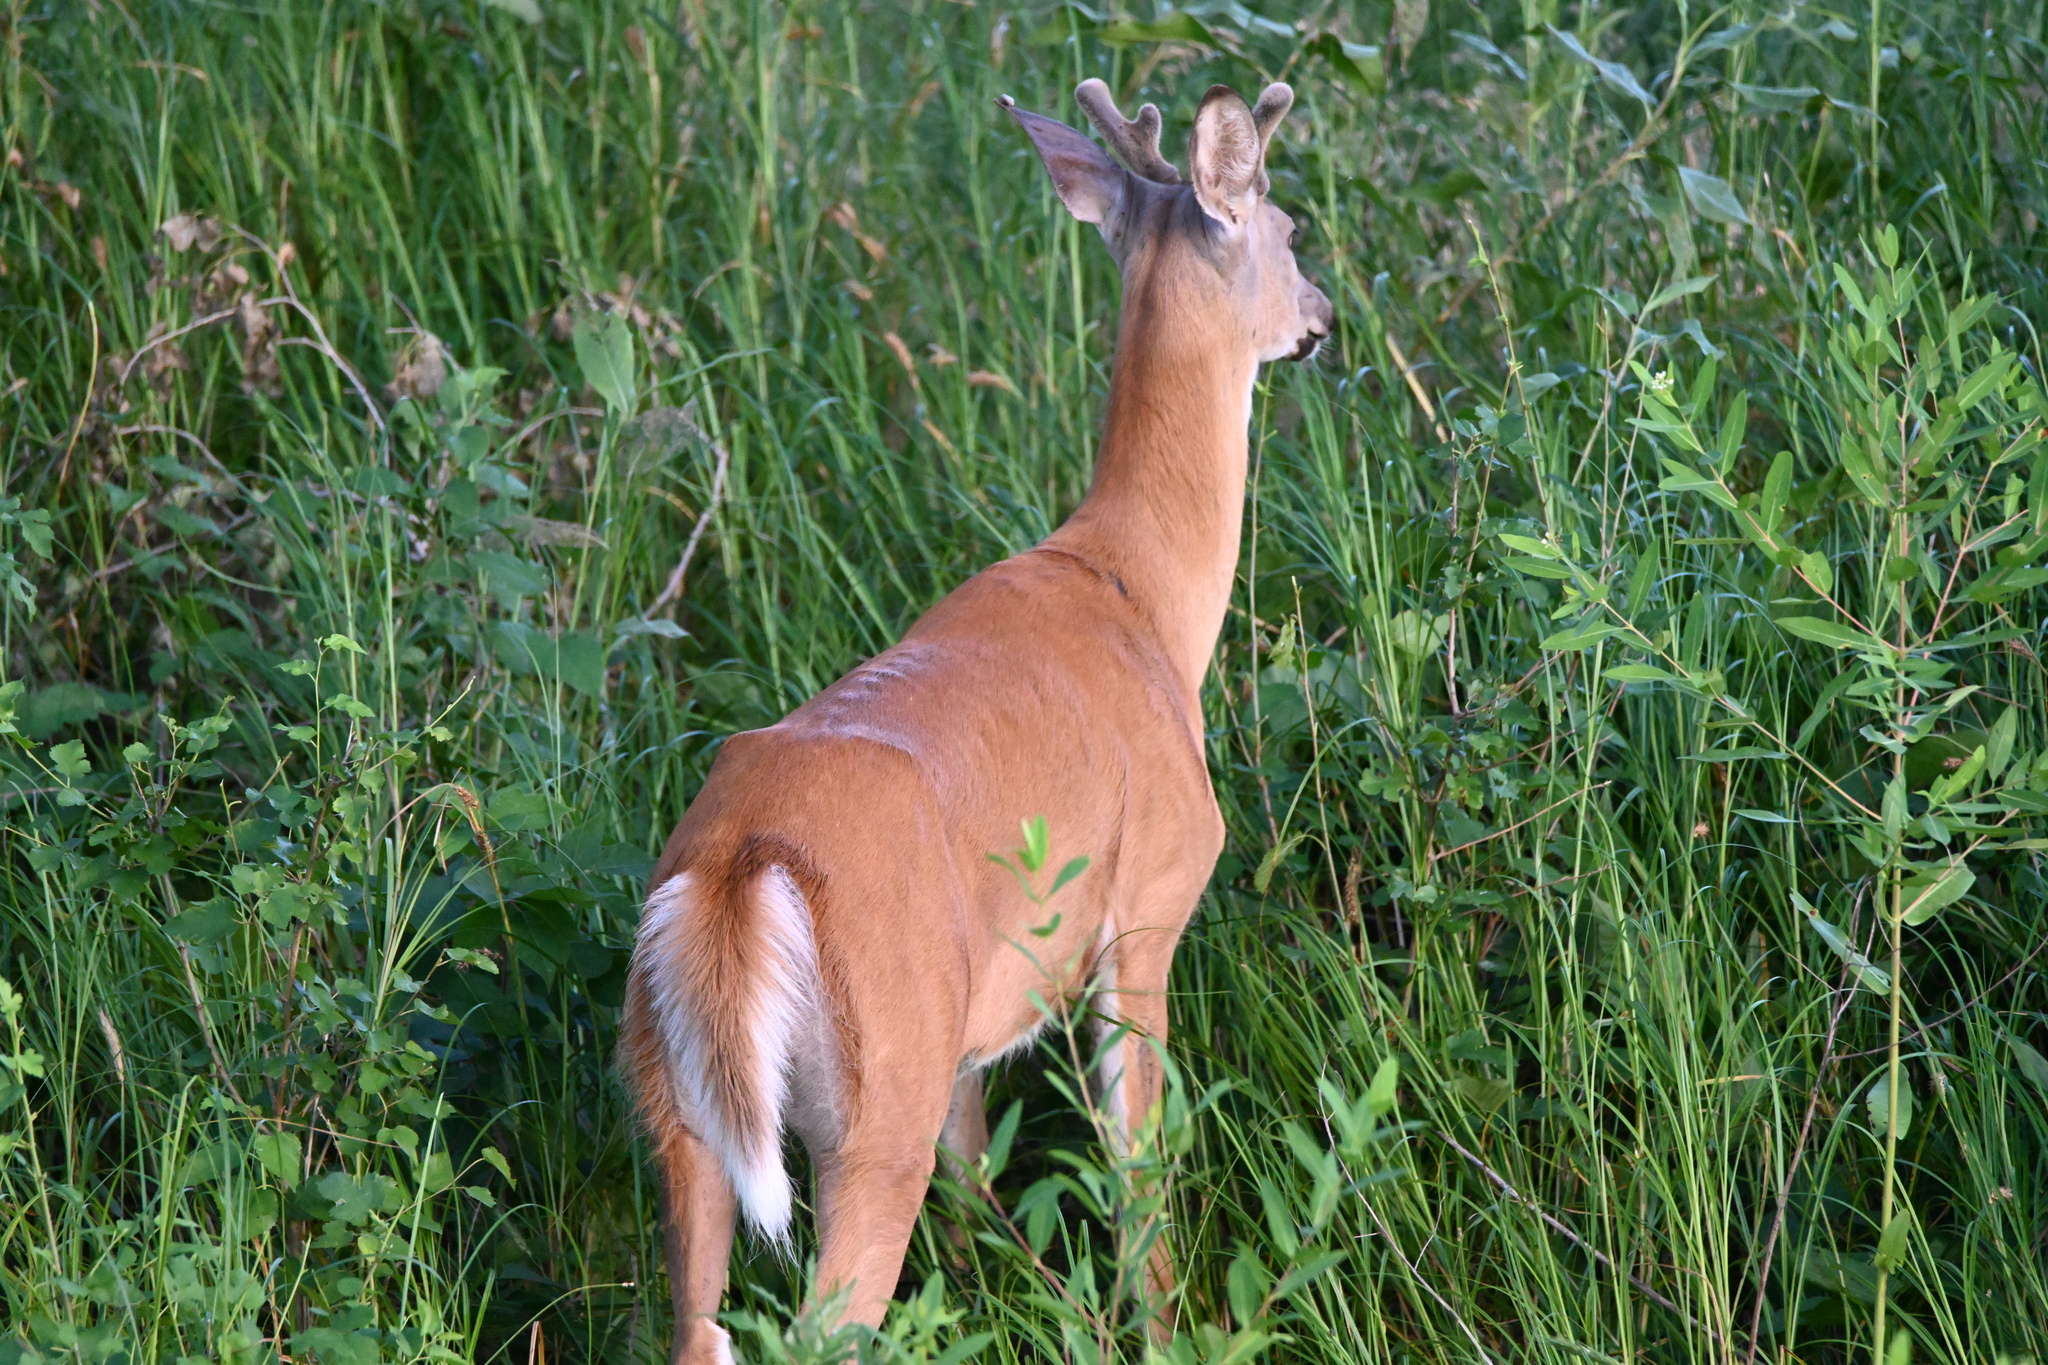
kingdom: Animalia
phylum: Chordata
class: Mammalia
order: Artiodactyla
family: Cervidae
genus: Odocoileus
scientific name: Odocoileus virginianus
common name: White-tailed deer
